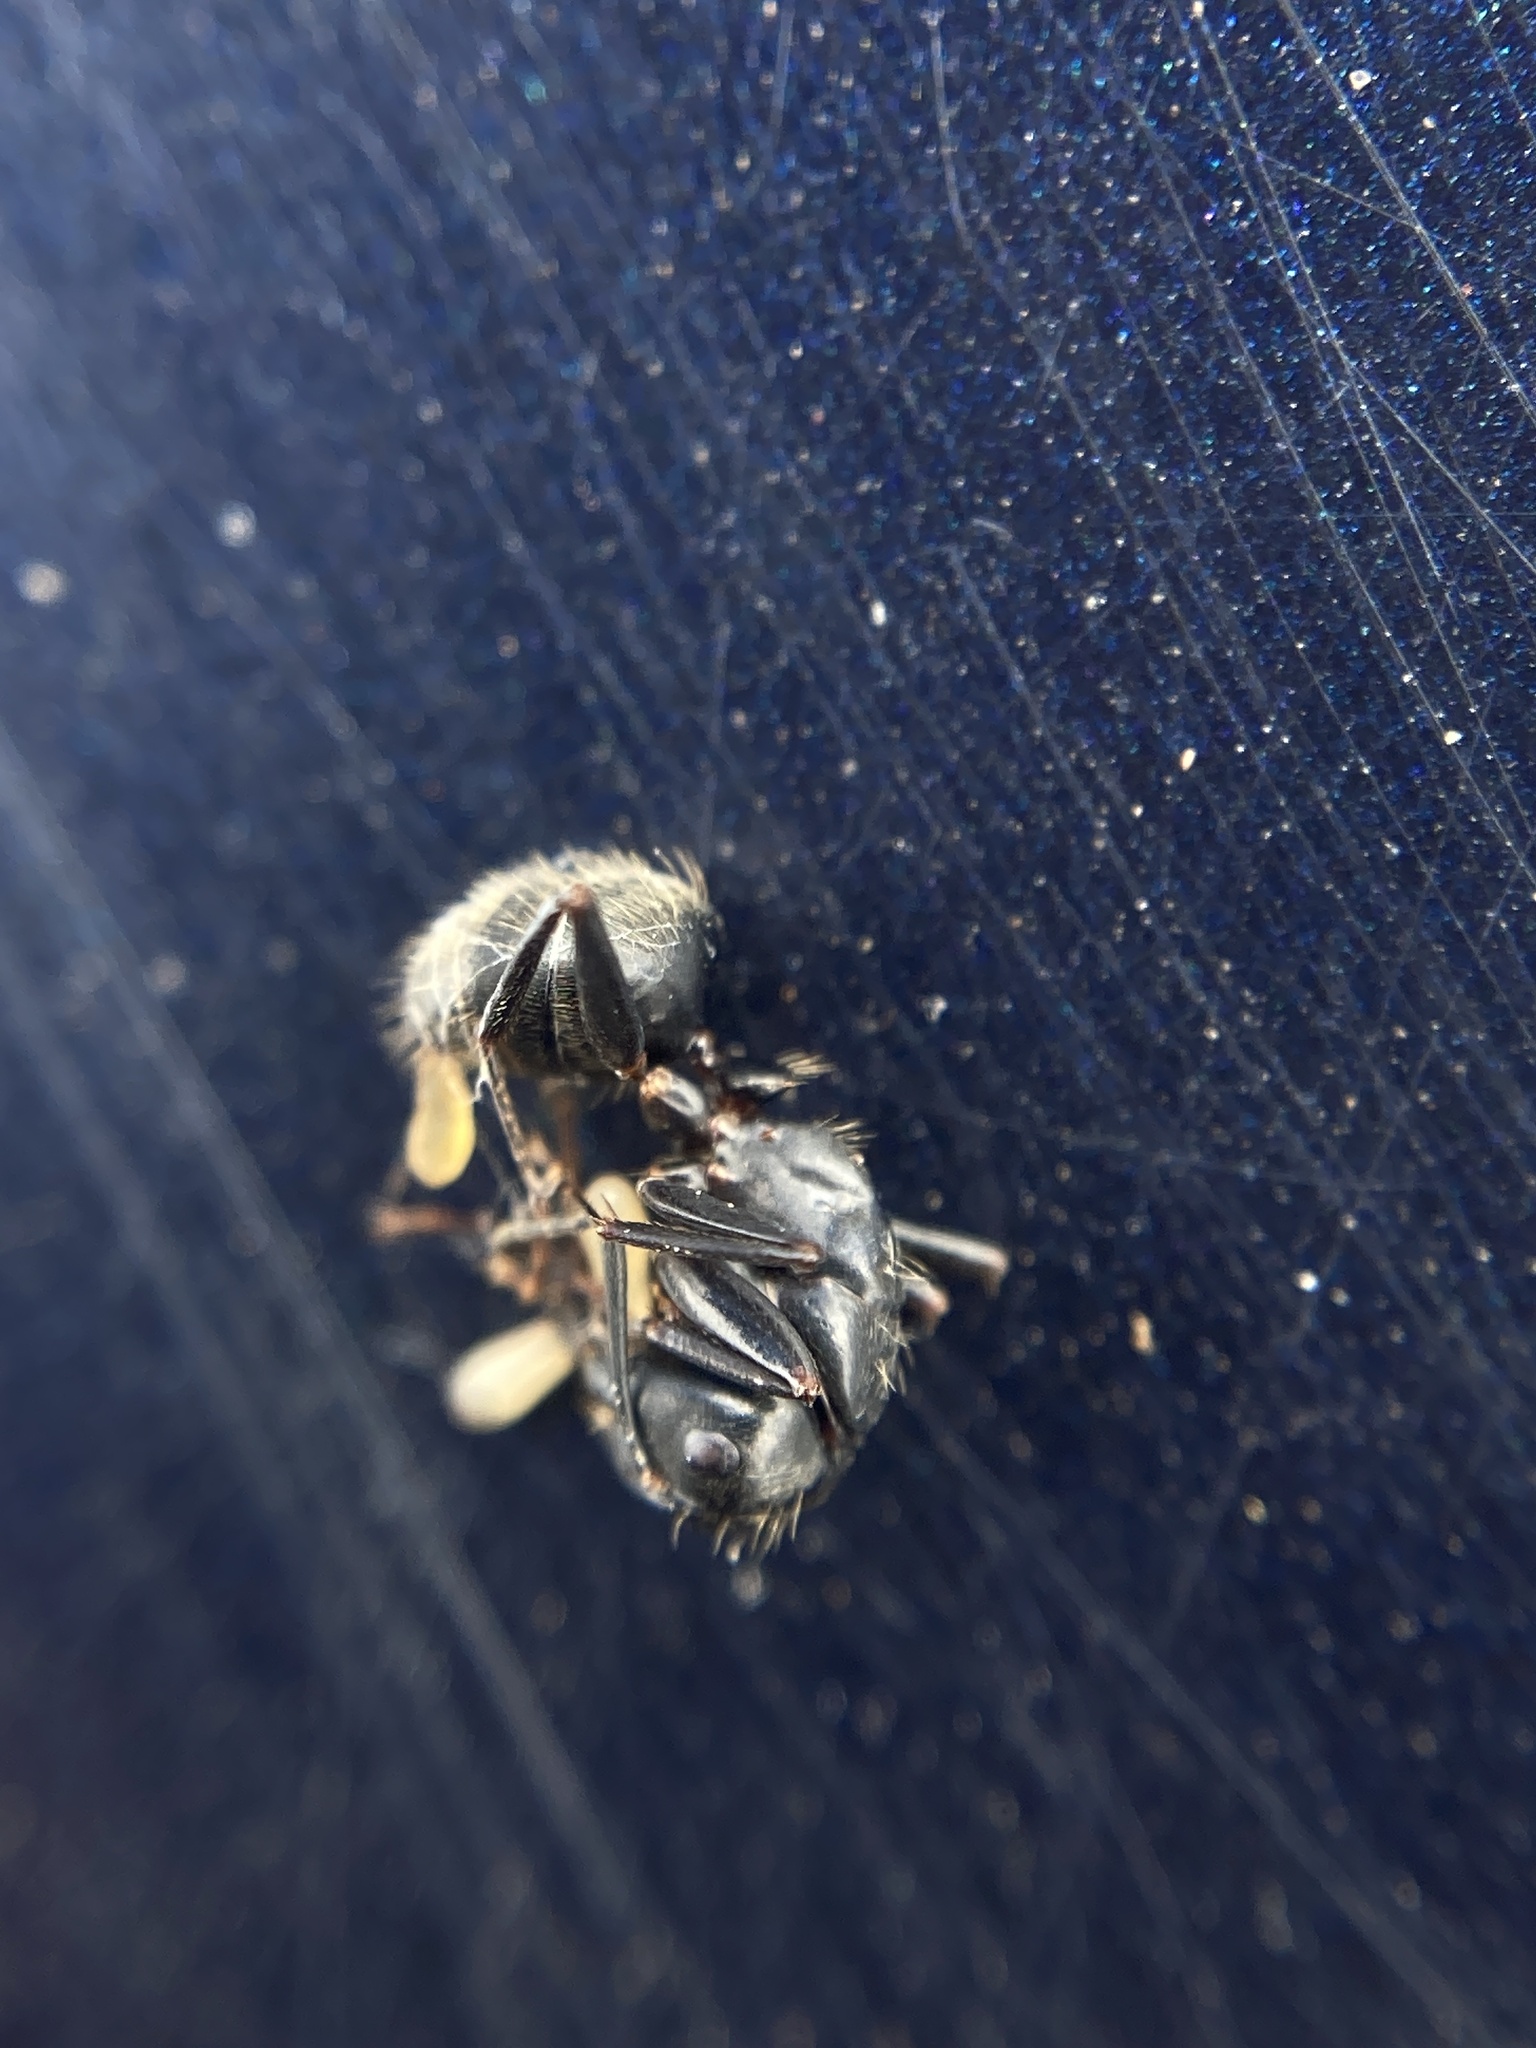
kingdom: Animalia
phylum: Arthropoda
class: Insecta
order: Hymenoptera
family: Formicidae
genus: Camponotus
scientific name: Camponotus pennsylvanicus
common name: Black carpenter ant
